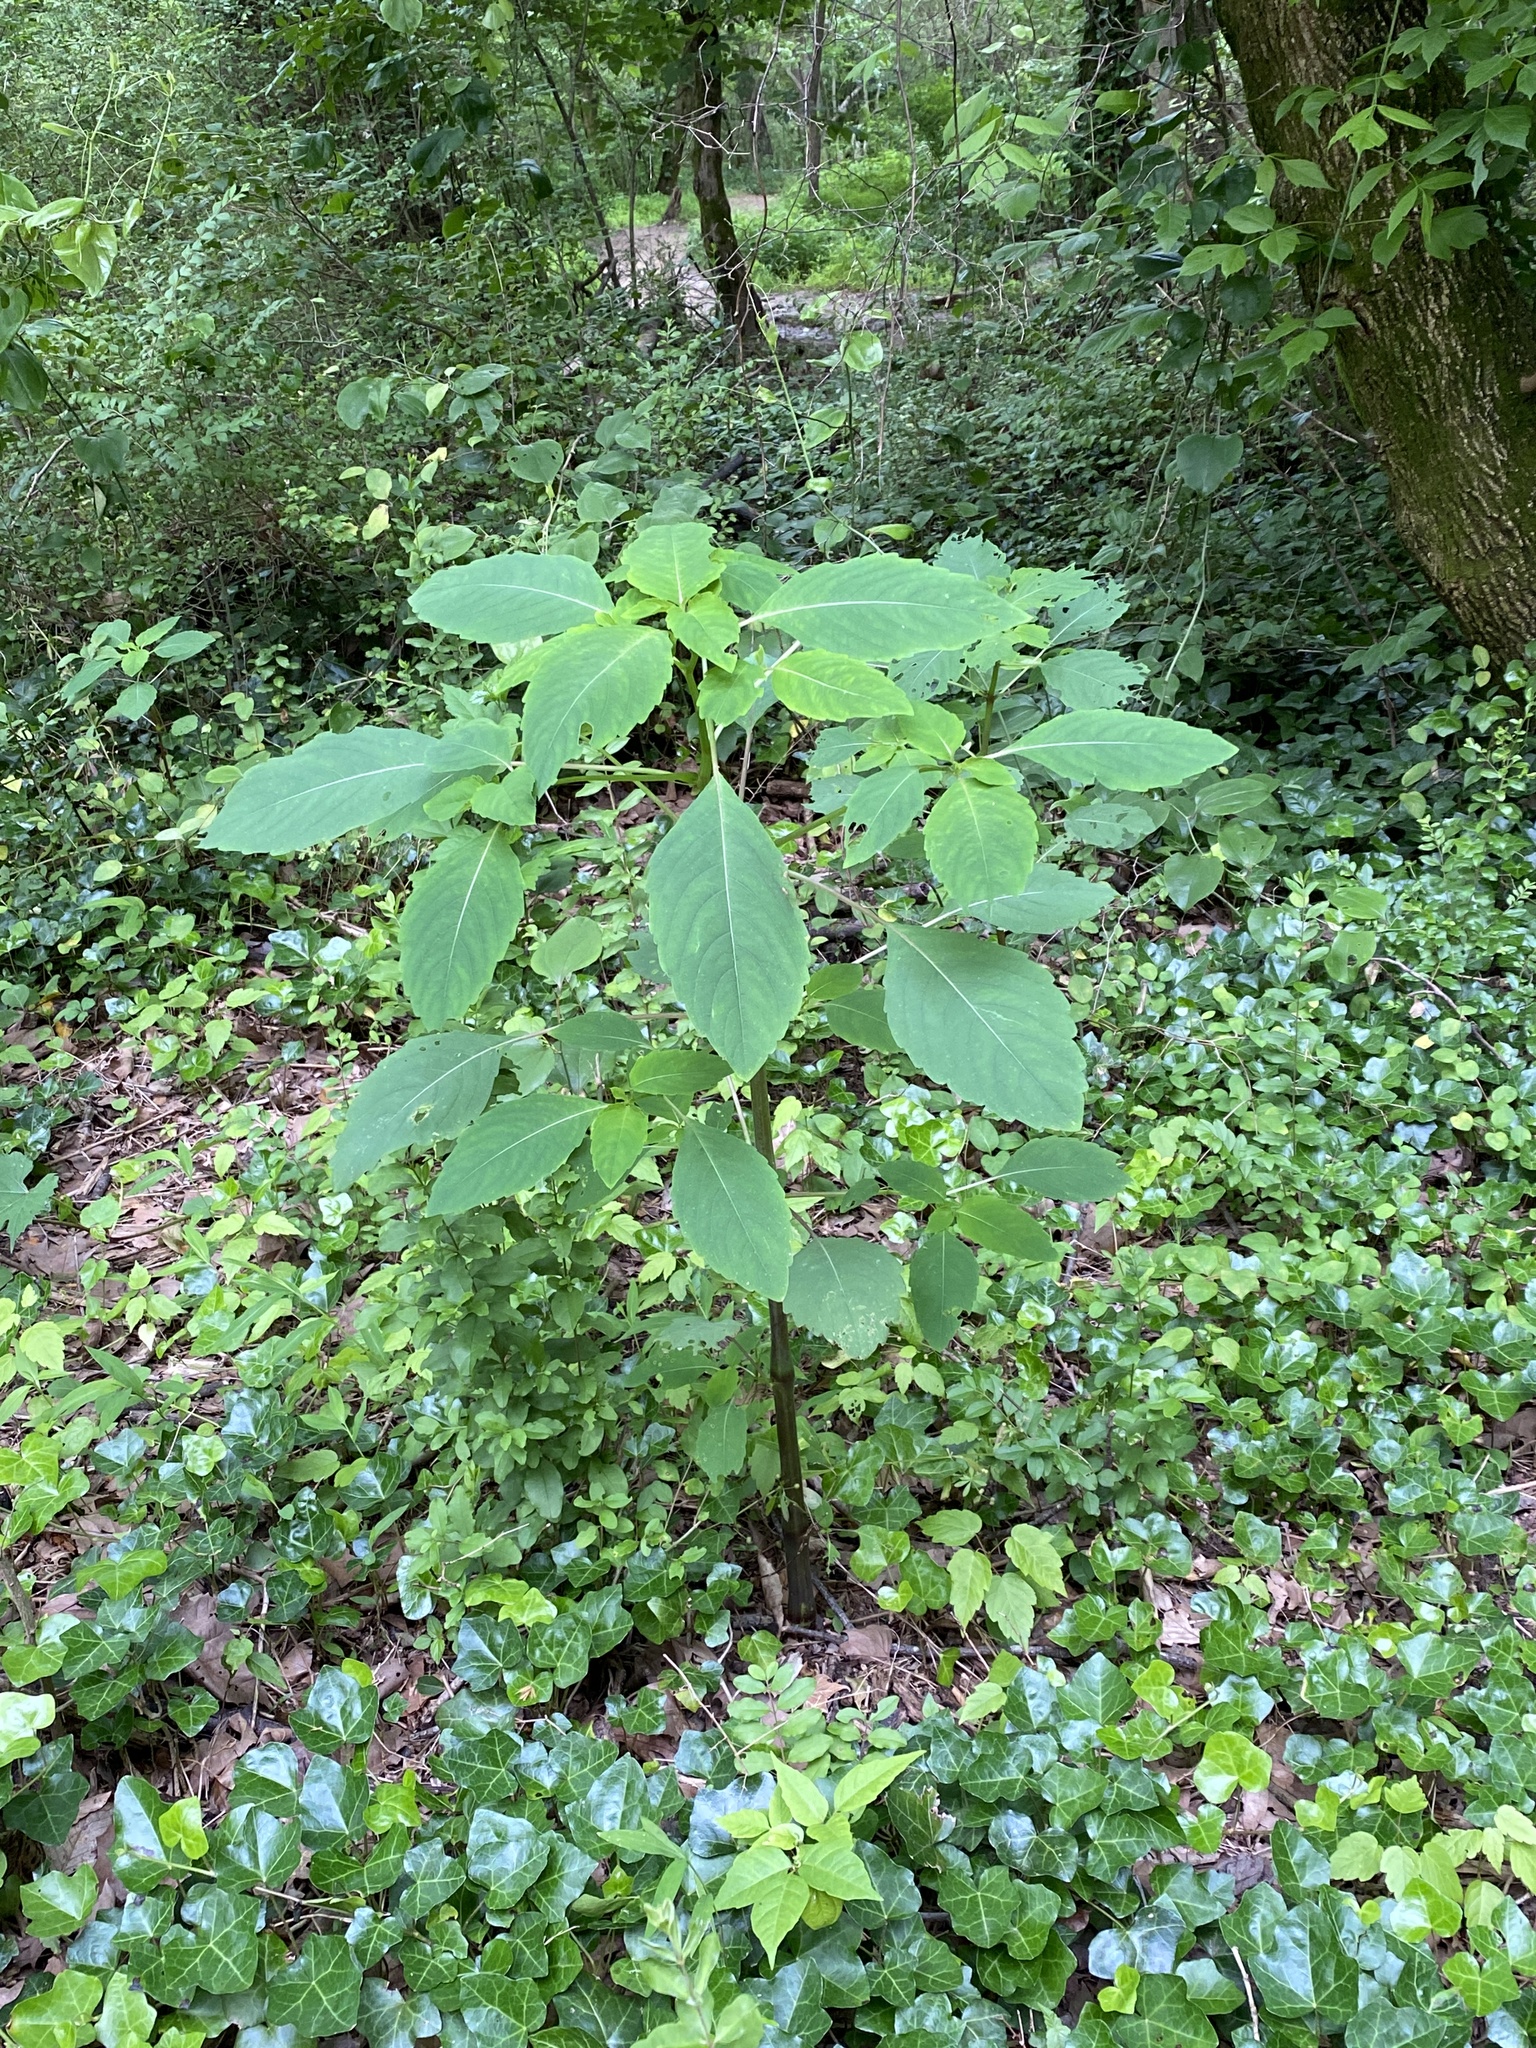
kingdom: Plantae
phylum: Tracheophyta
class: Magnoliopsida
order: Ericales
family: Balsaminaceae
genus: Impatiens
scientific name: Impatiens capensis
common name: Orange balsam
